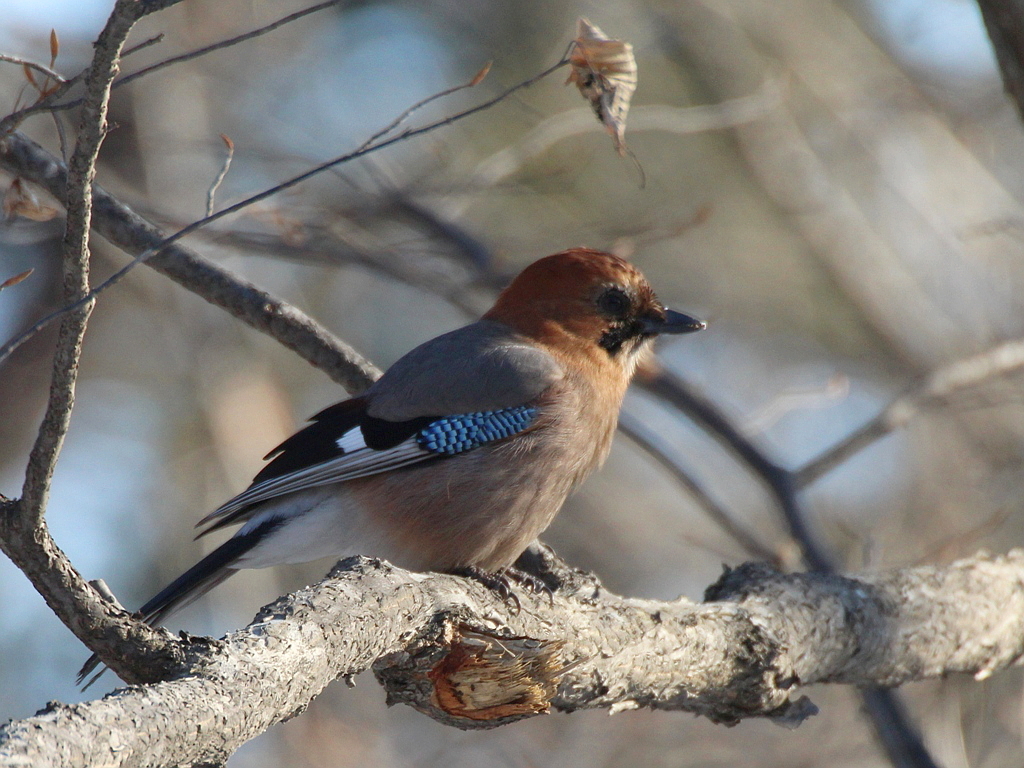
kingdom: Animalia
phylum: Chordata
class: Aves
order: Passeriformes
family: Corvidae
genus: Garrulus
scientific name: Garrulus glandarius
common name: Eurasian jay
